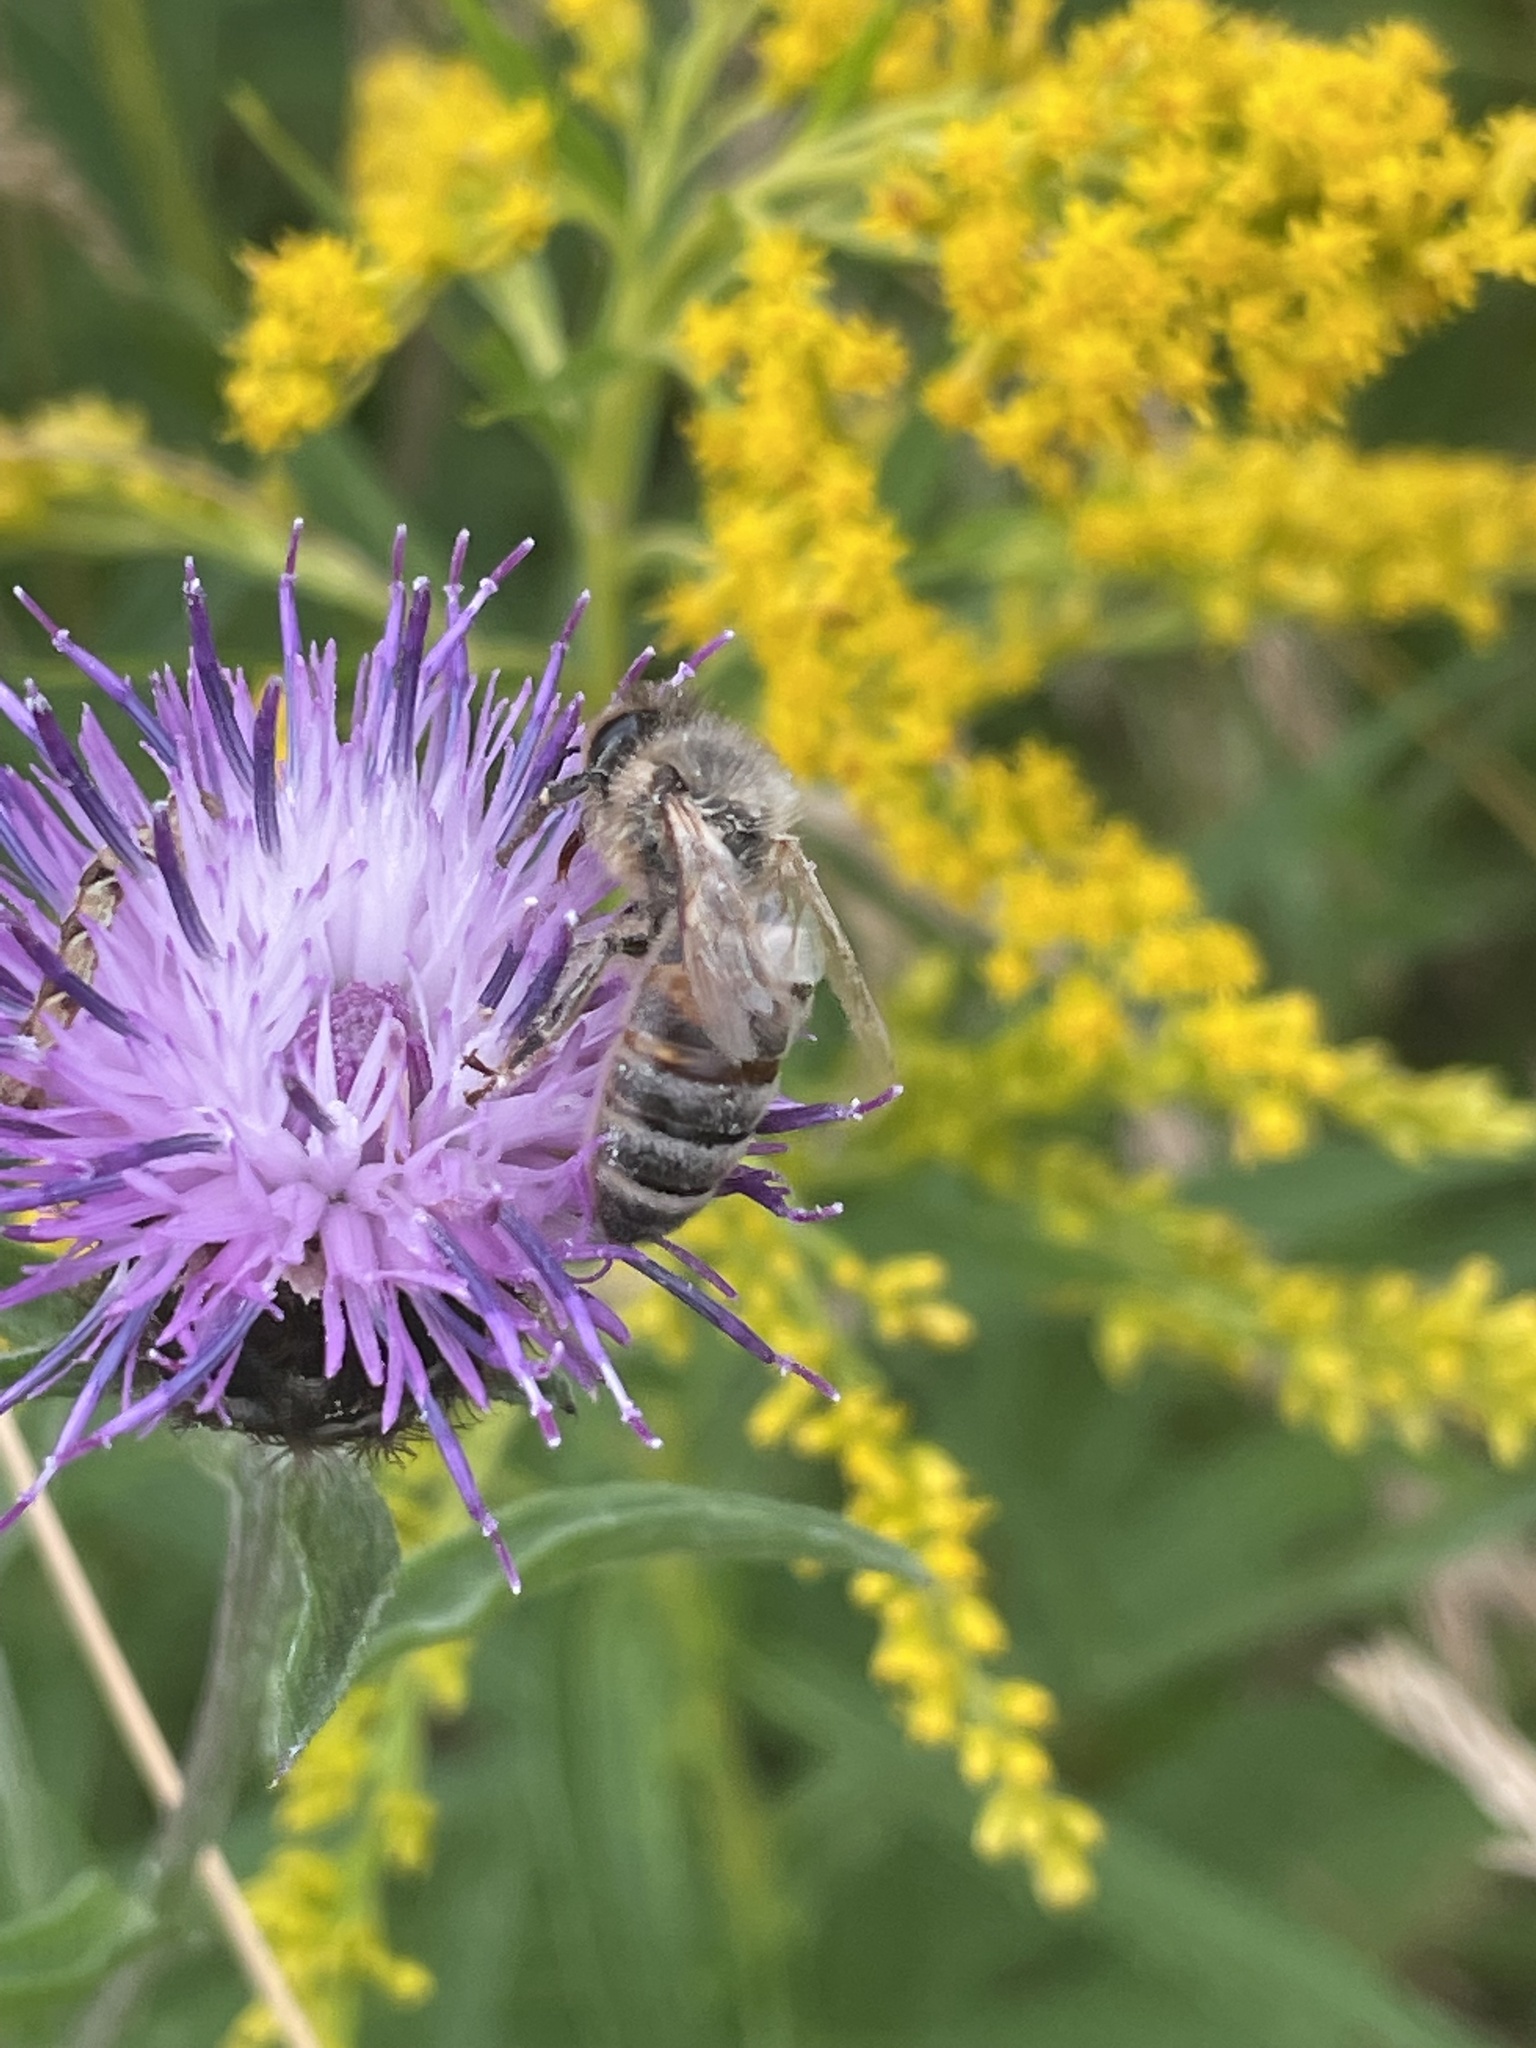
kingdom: Animalia
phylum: Arthropoda
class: Insecta
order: Hymenoptera
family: Apidae
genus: Apis
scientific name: Apis mellifera
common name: Honey bee
